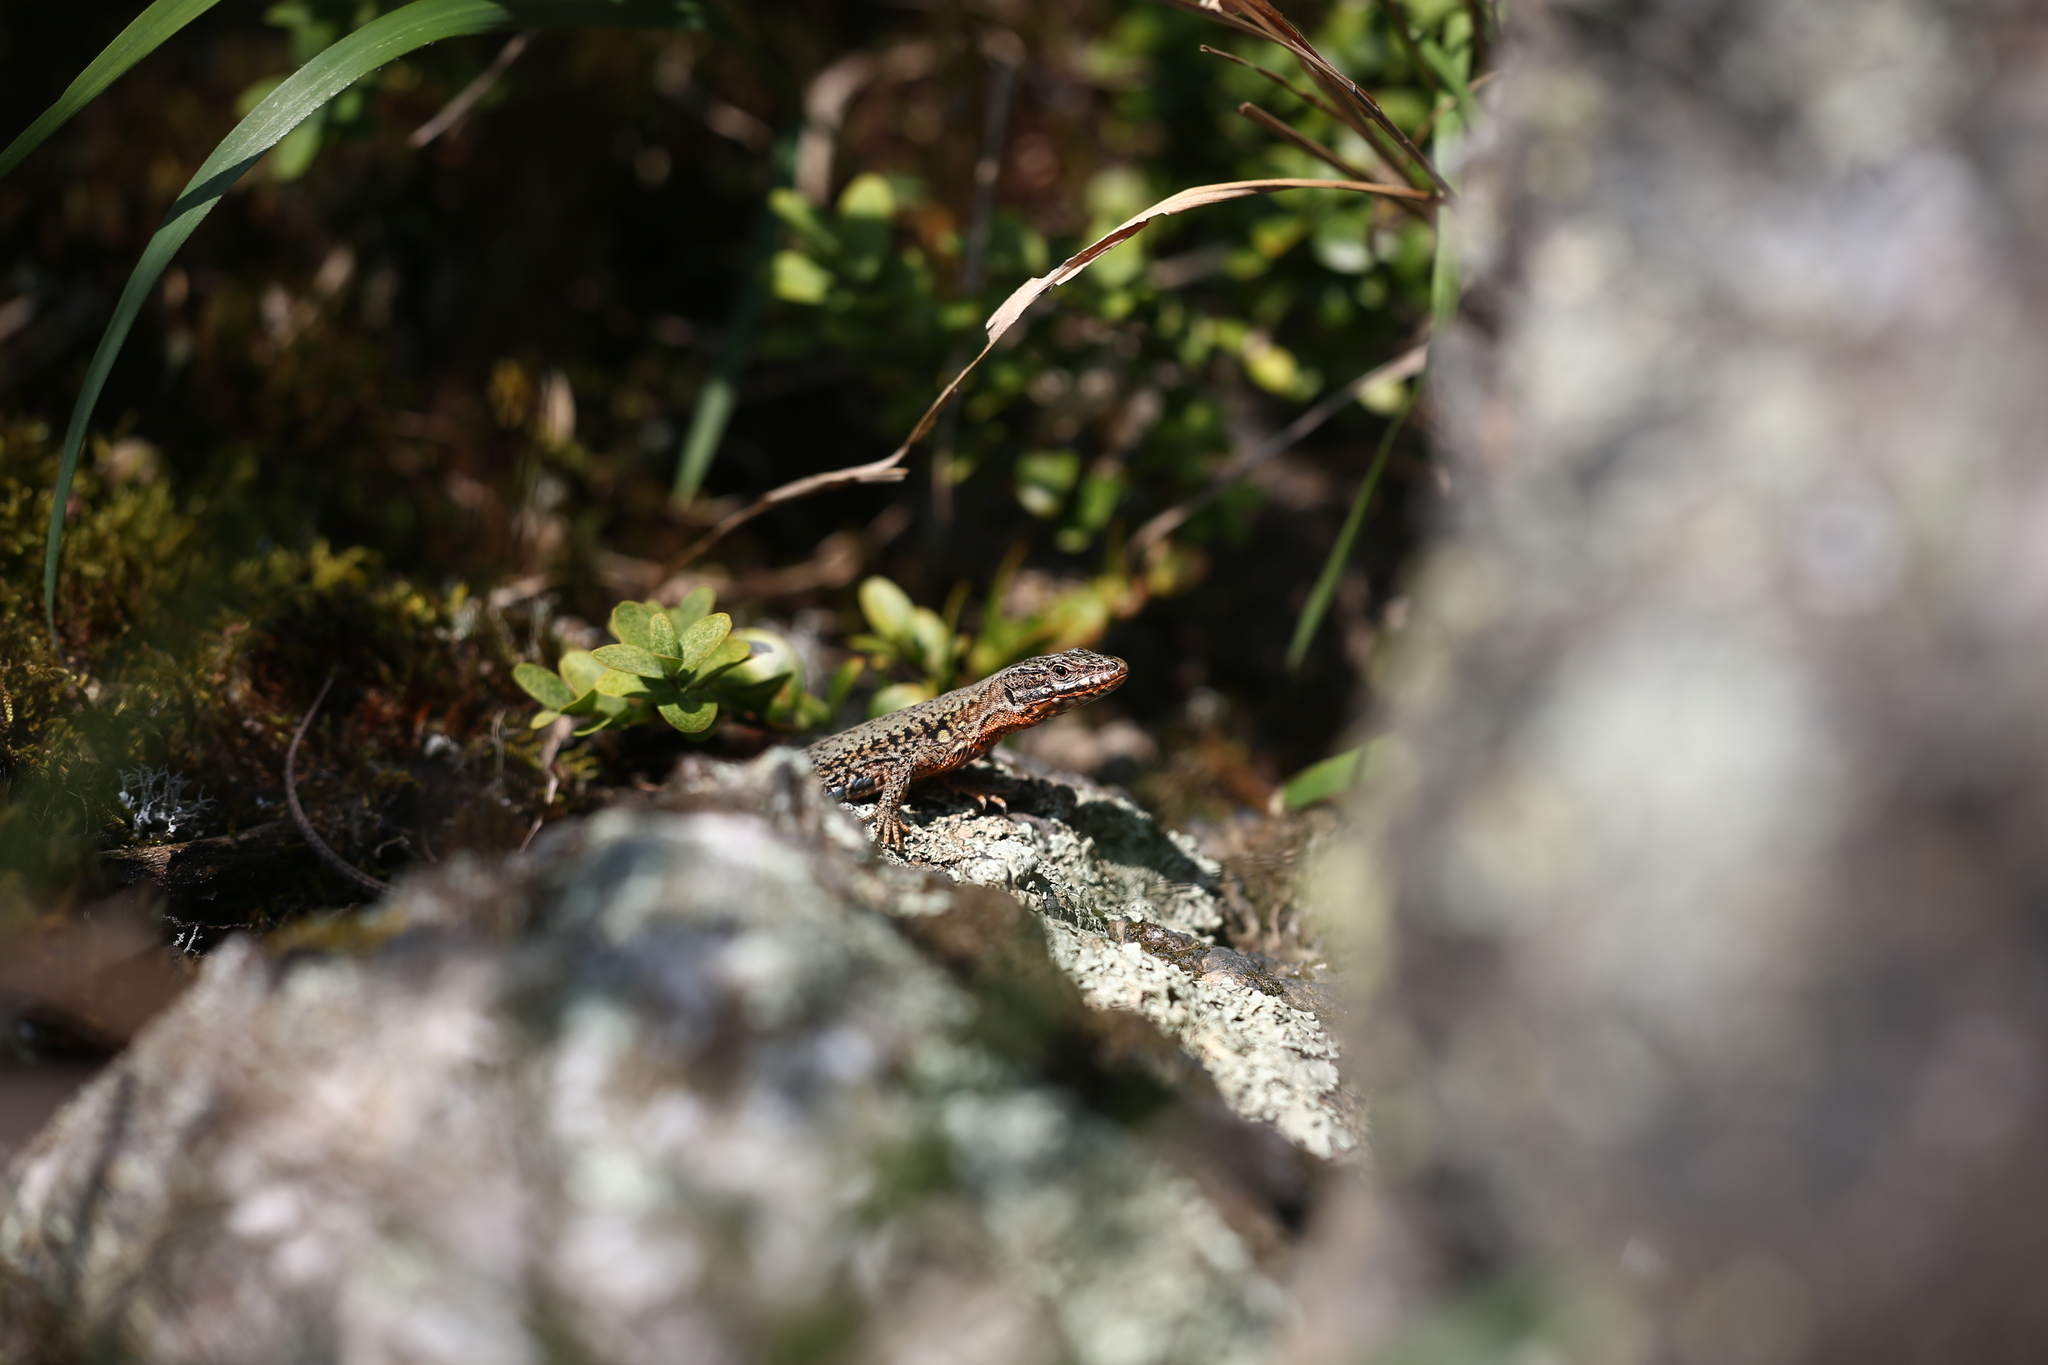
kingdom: Animalia
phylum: Chordata
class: Squamata
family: Lacertidae
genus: Podarcis
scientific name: Podarcis muralis
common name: Common wall lizard
